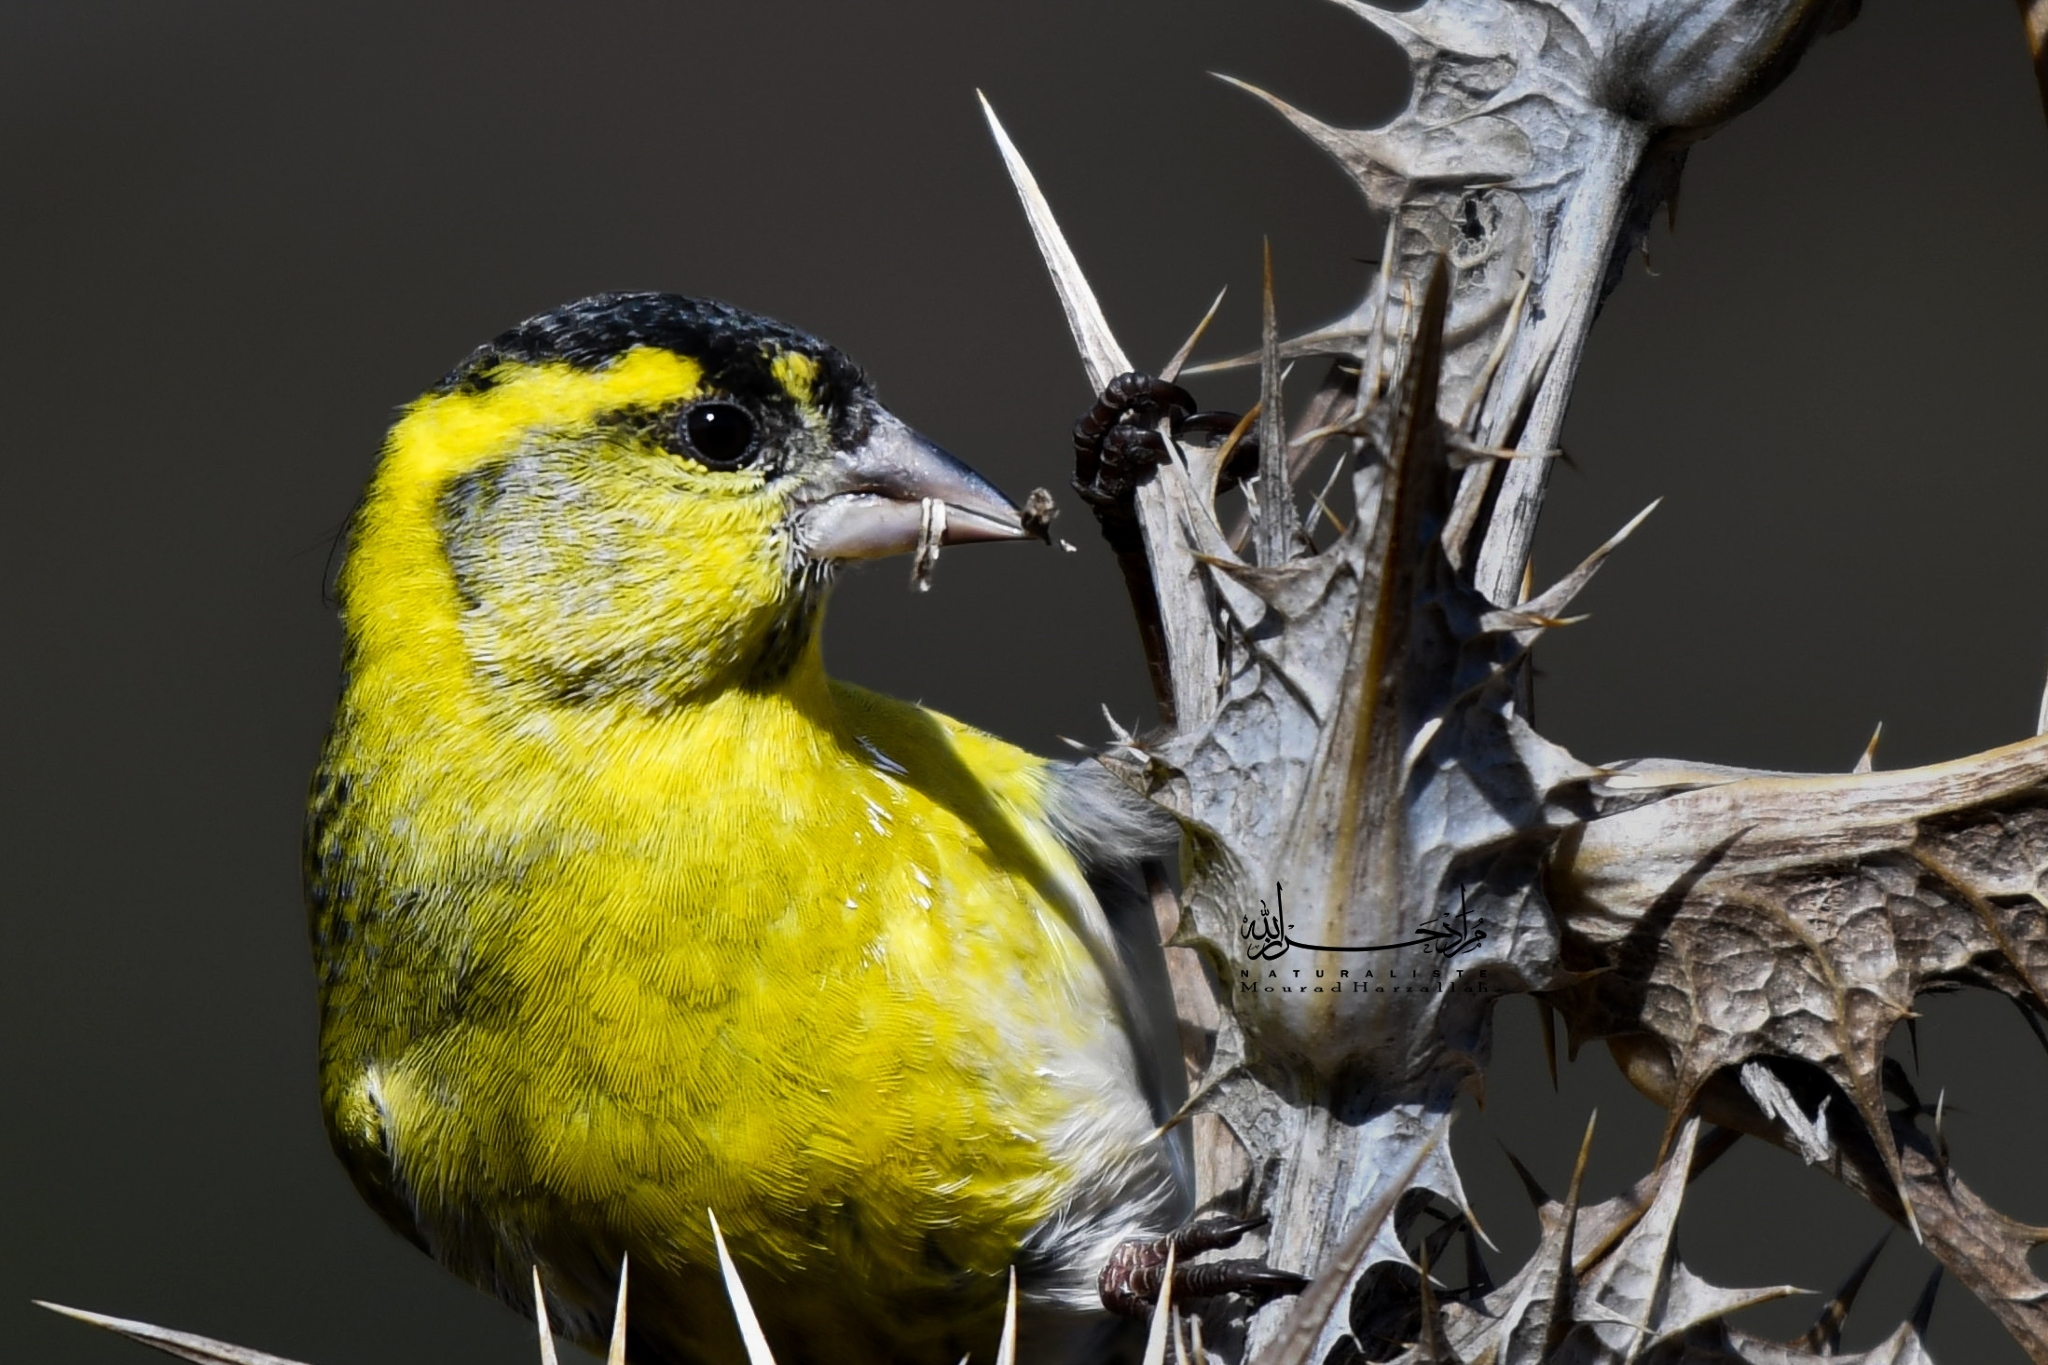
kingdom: Animalia
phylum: Chordata
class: Aves
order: Passeriformes
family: Fringillidae
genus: Spinus
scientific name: Spinus spinus
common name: Eurasian siskin
